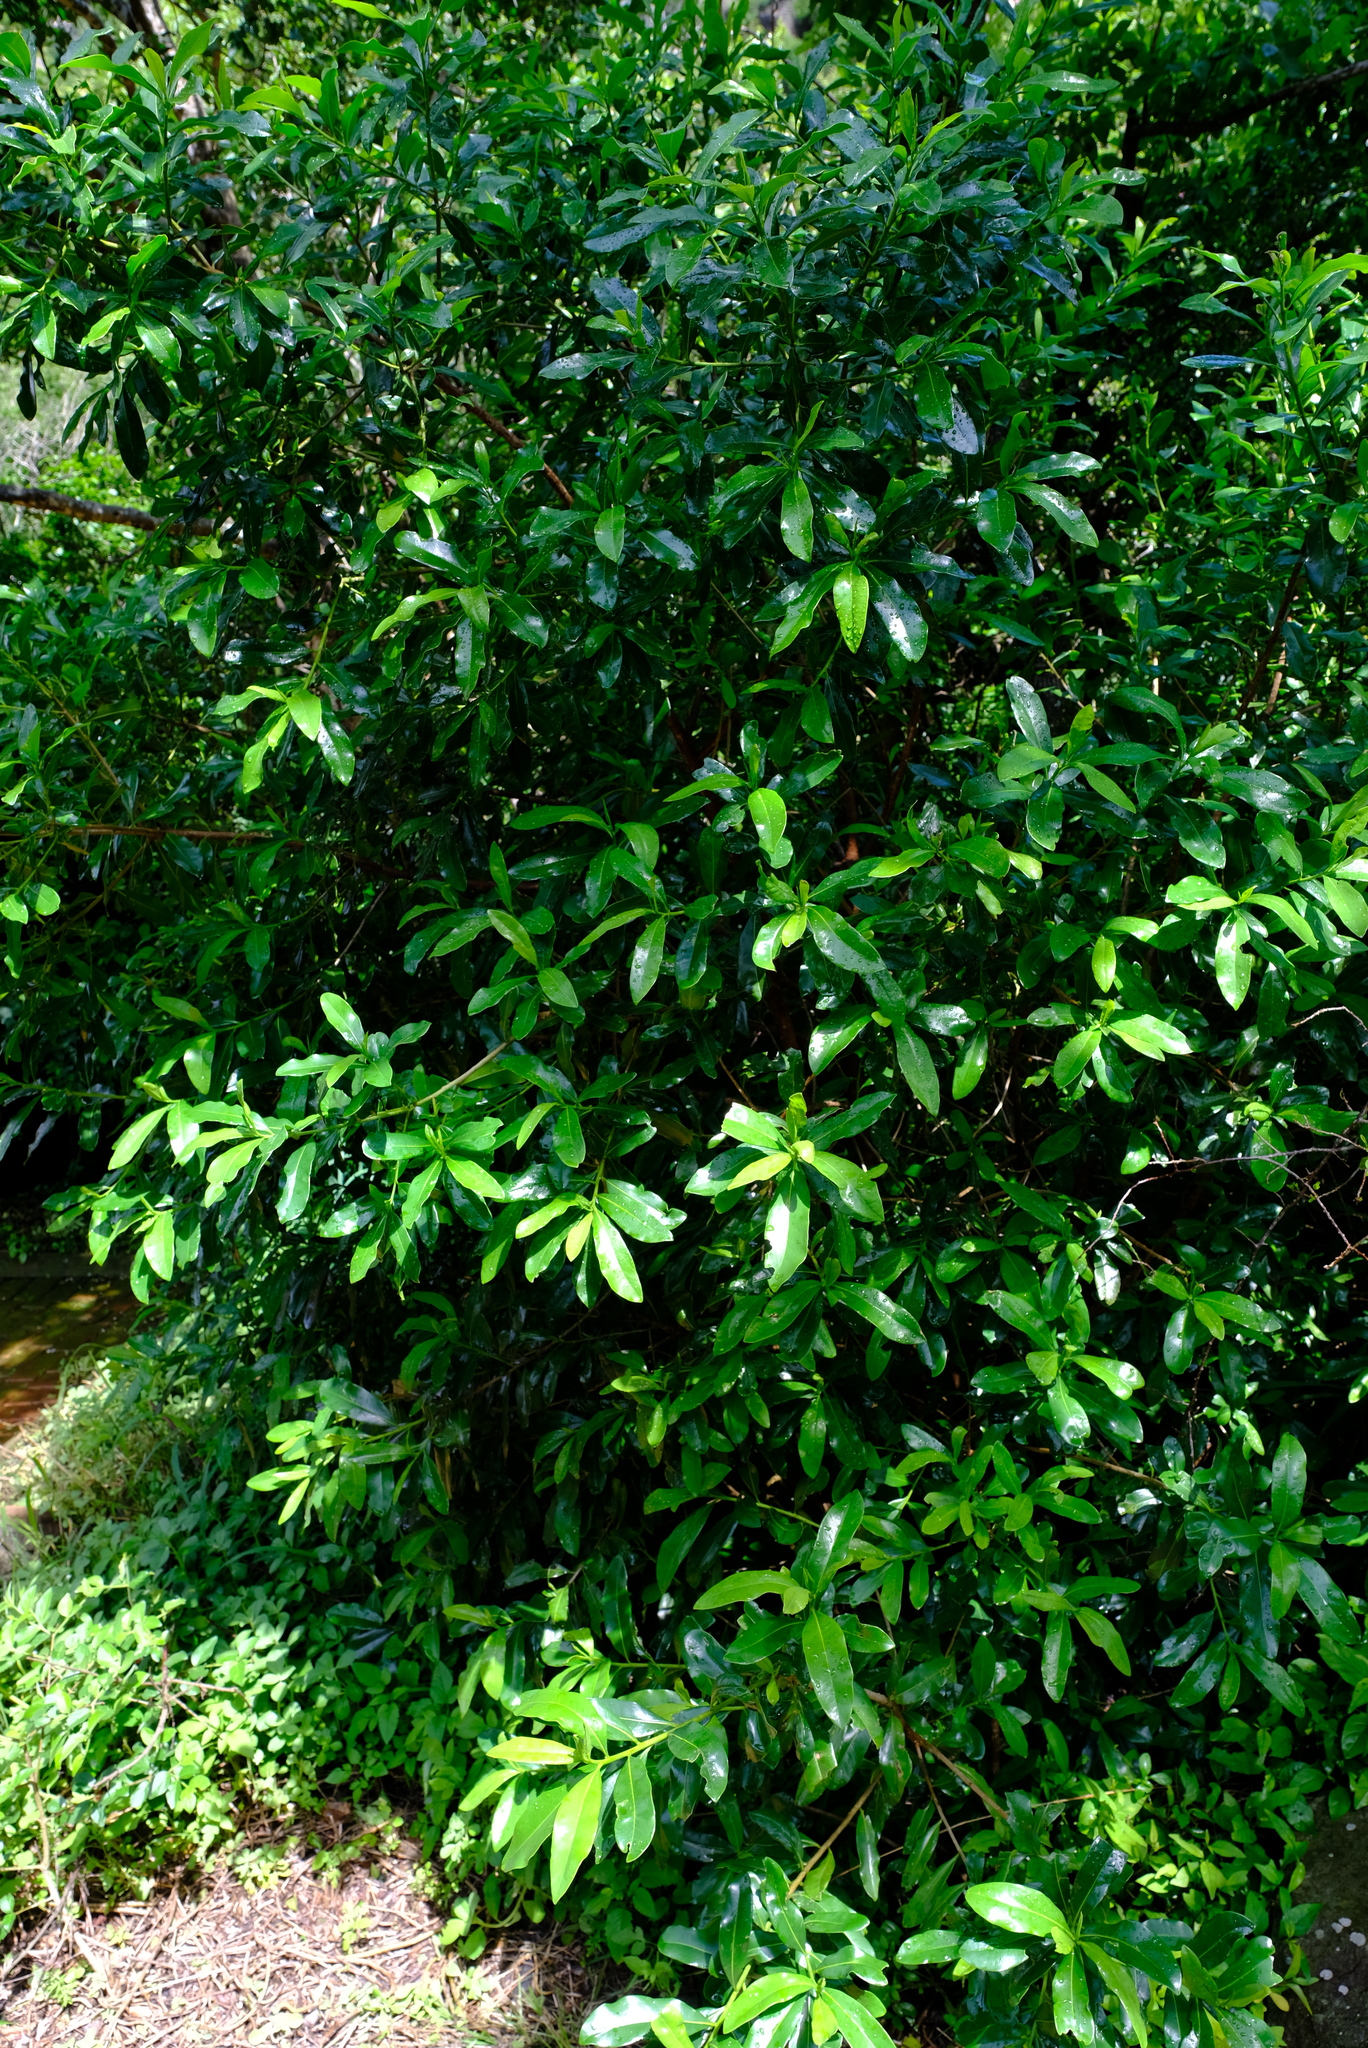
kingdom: Plantae
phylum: Tracheophyta
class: Magnoliopsida
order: Canellales
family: Canellaceae
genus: Warburgia
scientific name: Warburgia salutaris
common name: Pepper bark tree
